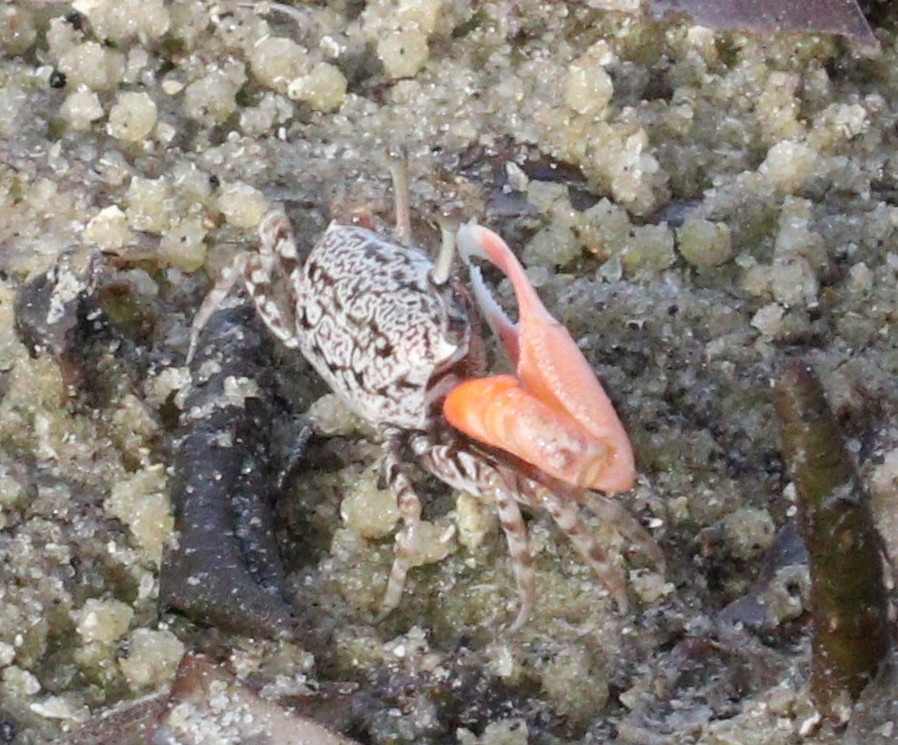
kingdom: Animalia
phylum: Arthropoda
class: Malacostraca
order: Decapoda
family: Ocypodidae
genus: Austruca
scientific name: Austruca occidentalis
